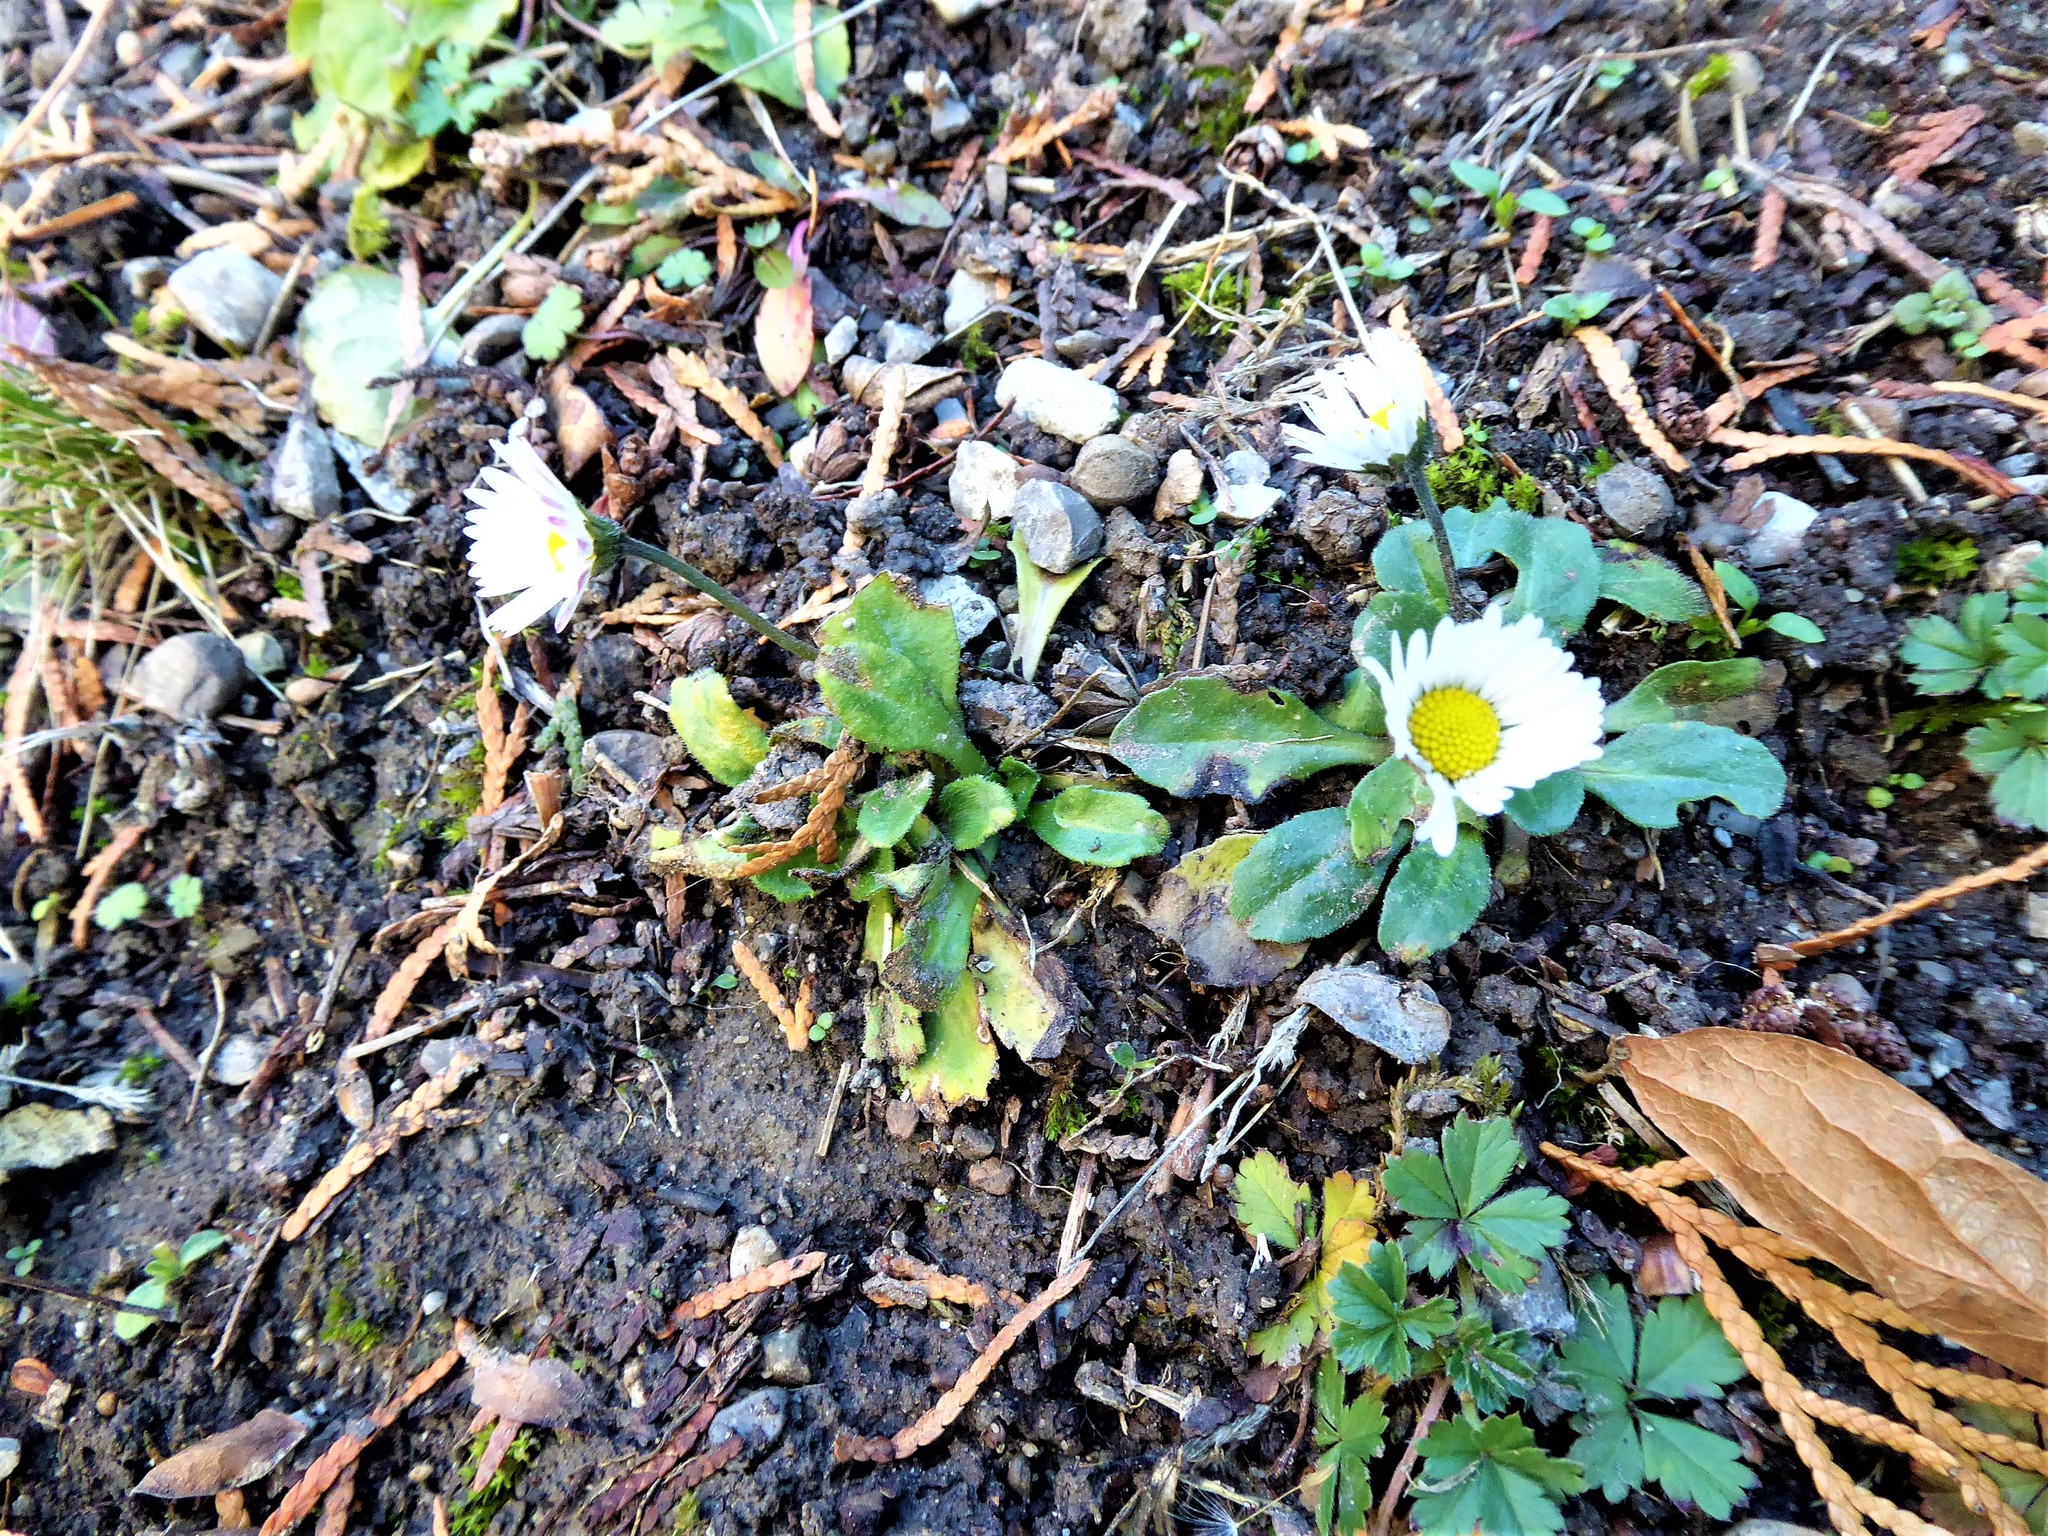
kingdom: Plantae
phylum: Tracheophyta
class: Magnoliopsida
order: Asterales
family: Asteraceae
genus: Bellis
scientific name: Bellis perennis
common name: Lawndaisy
